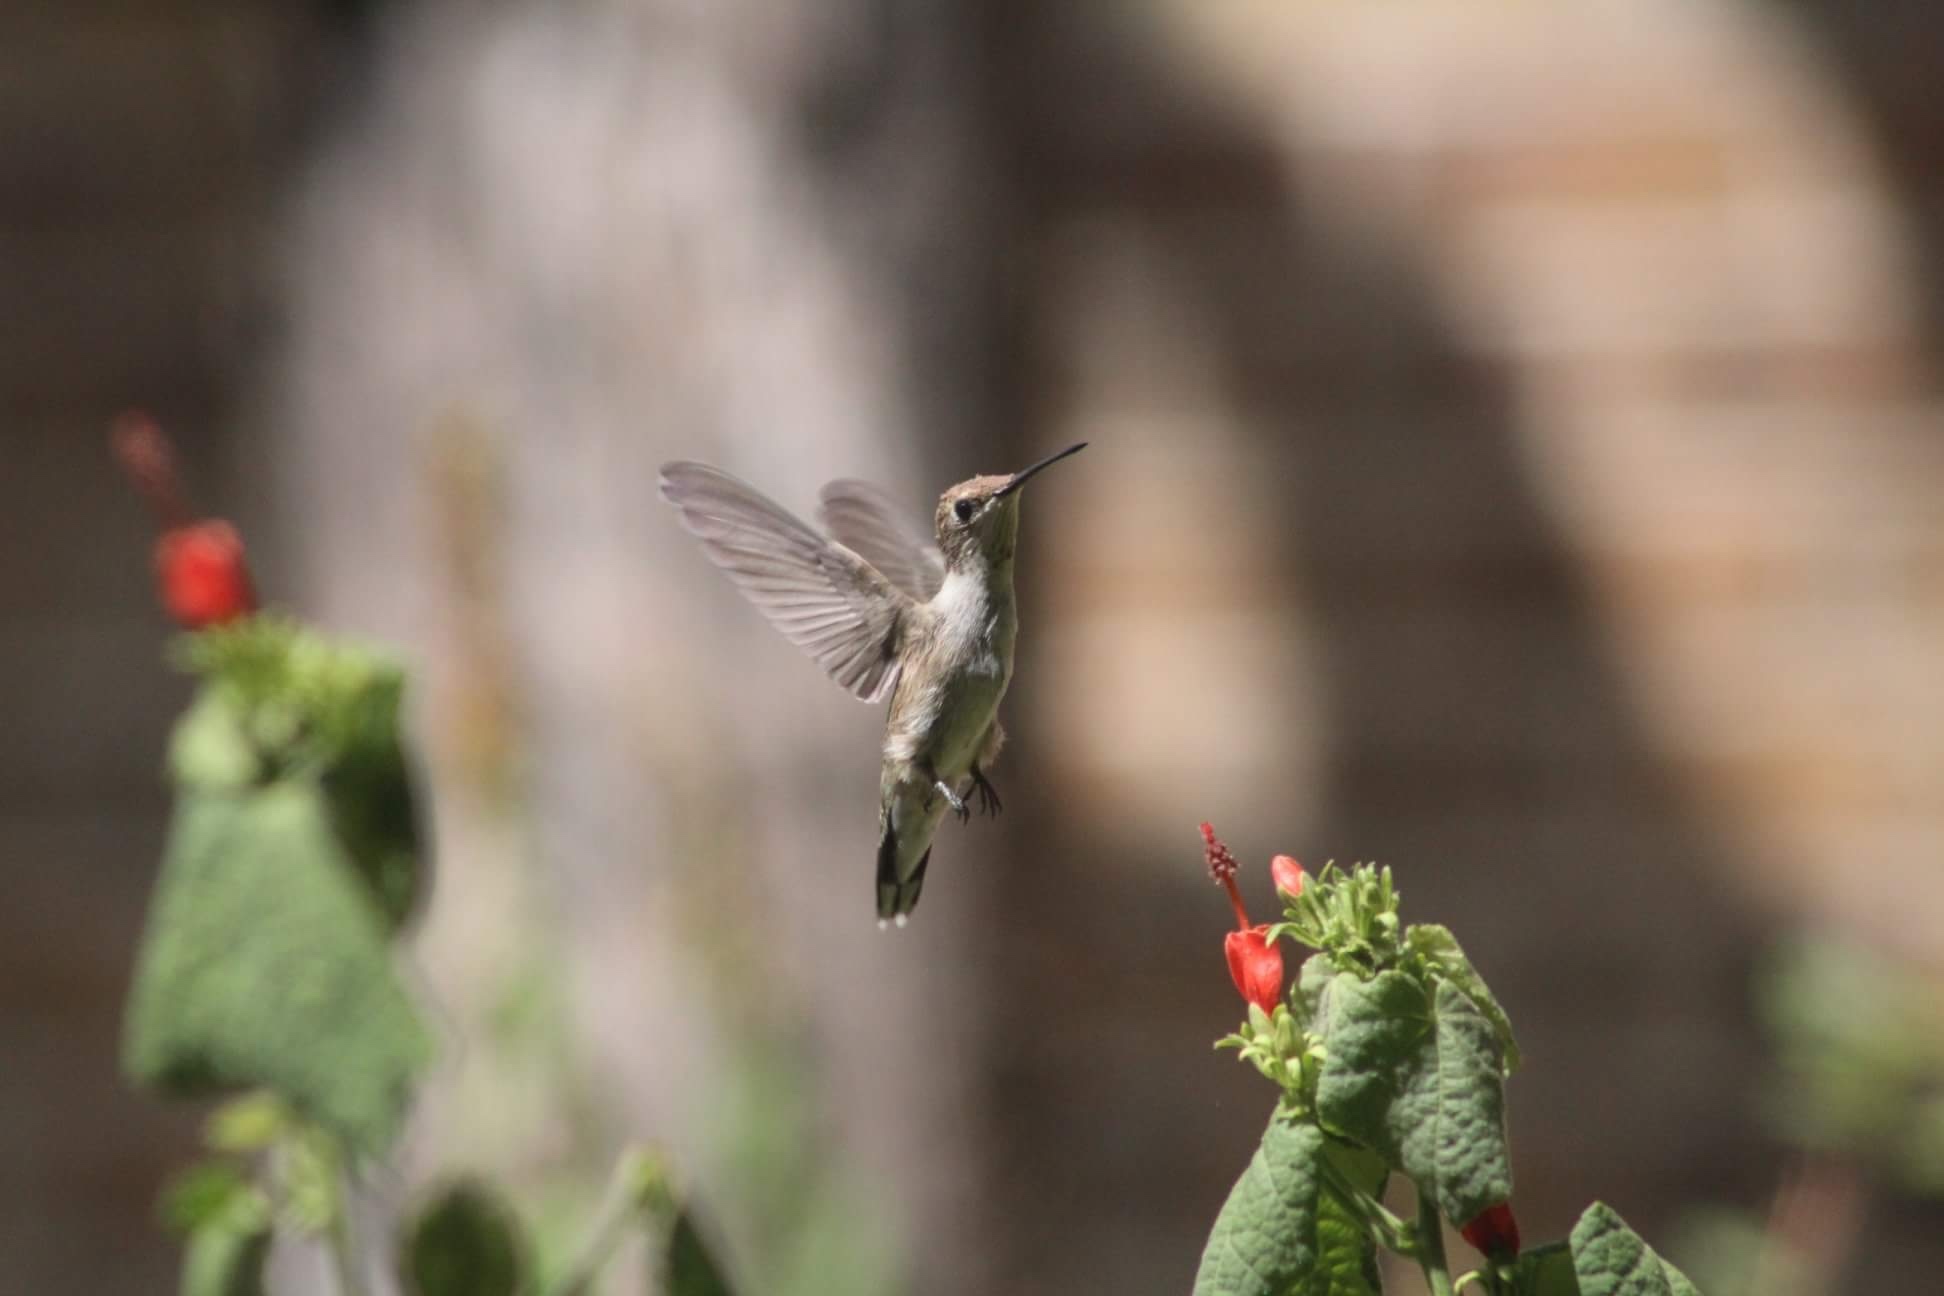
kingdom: Animalia
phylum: Chordata
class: Aves
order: Apodiformes
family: Trochilidae
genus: Archilochus
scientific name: Archilochus alexandri
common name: Black-chinned hummingbird
